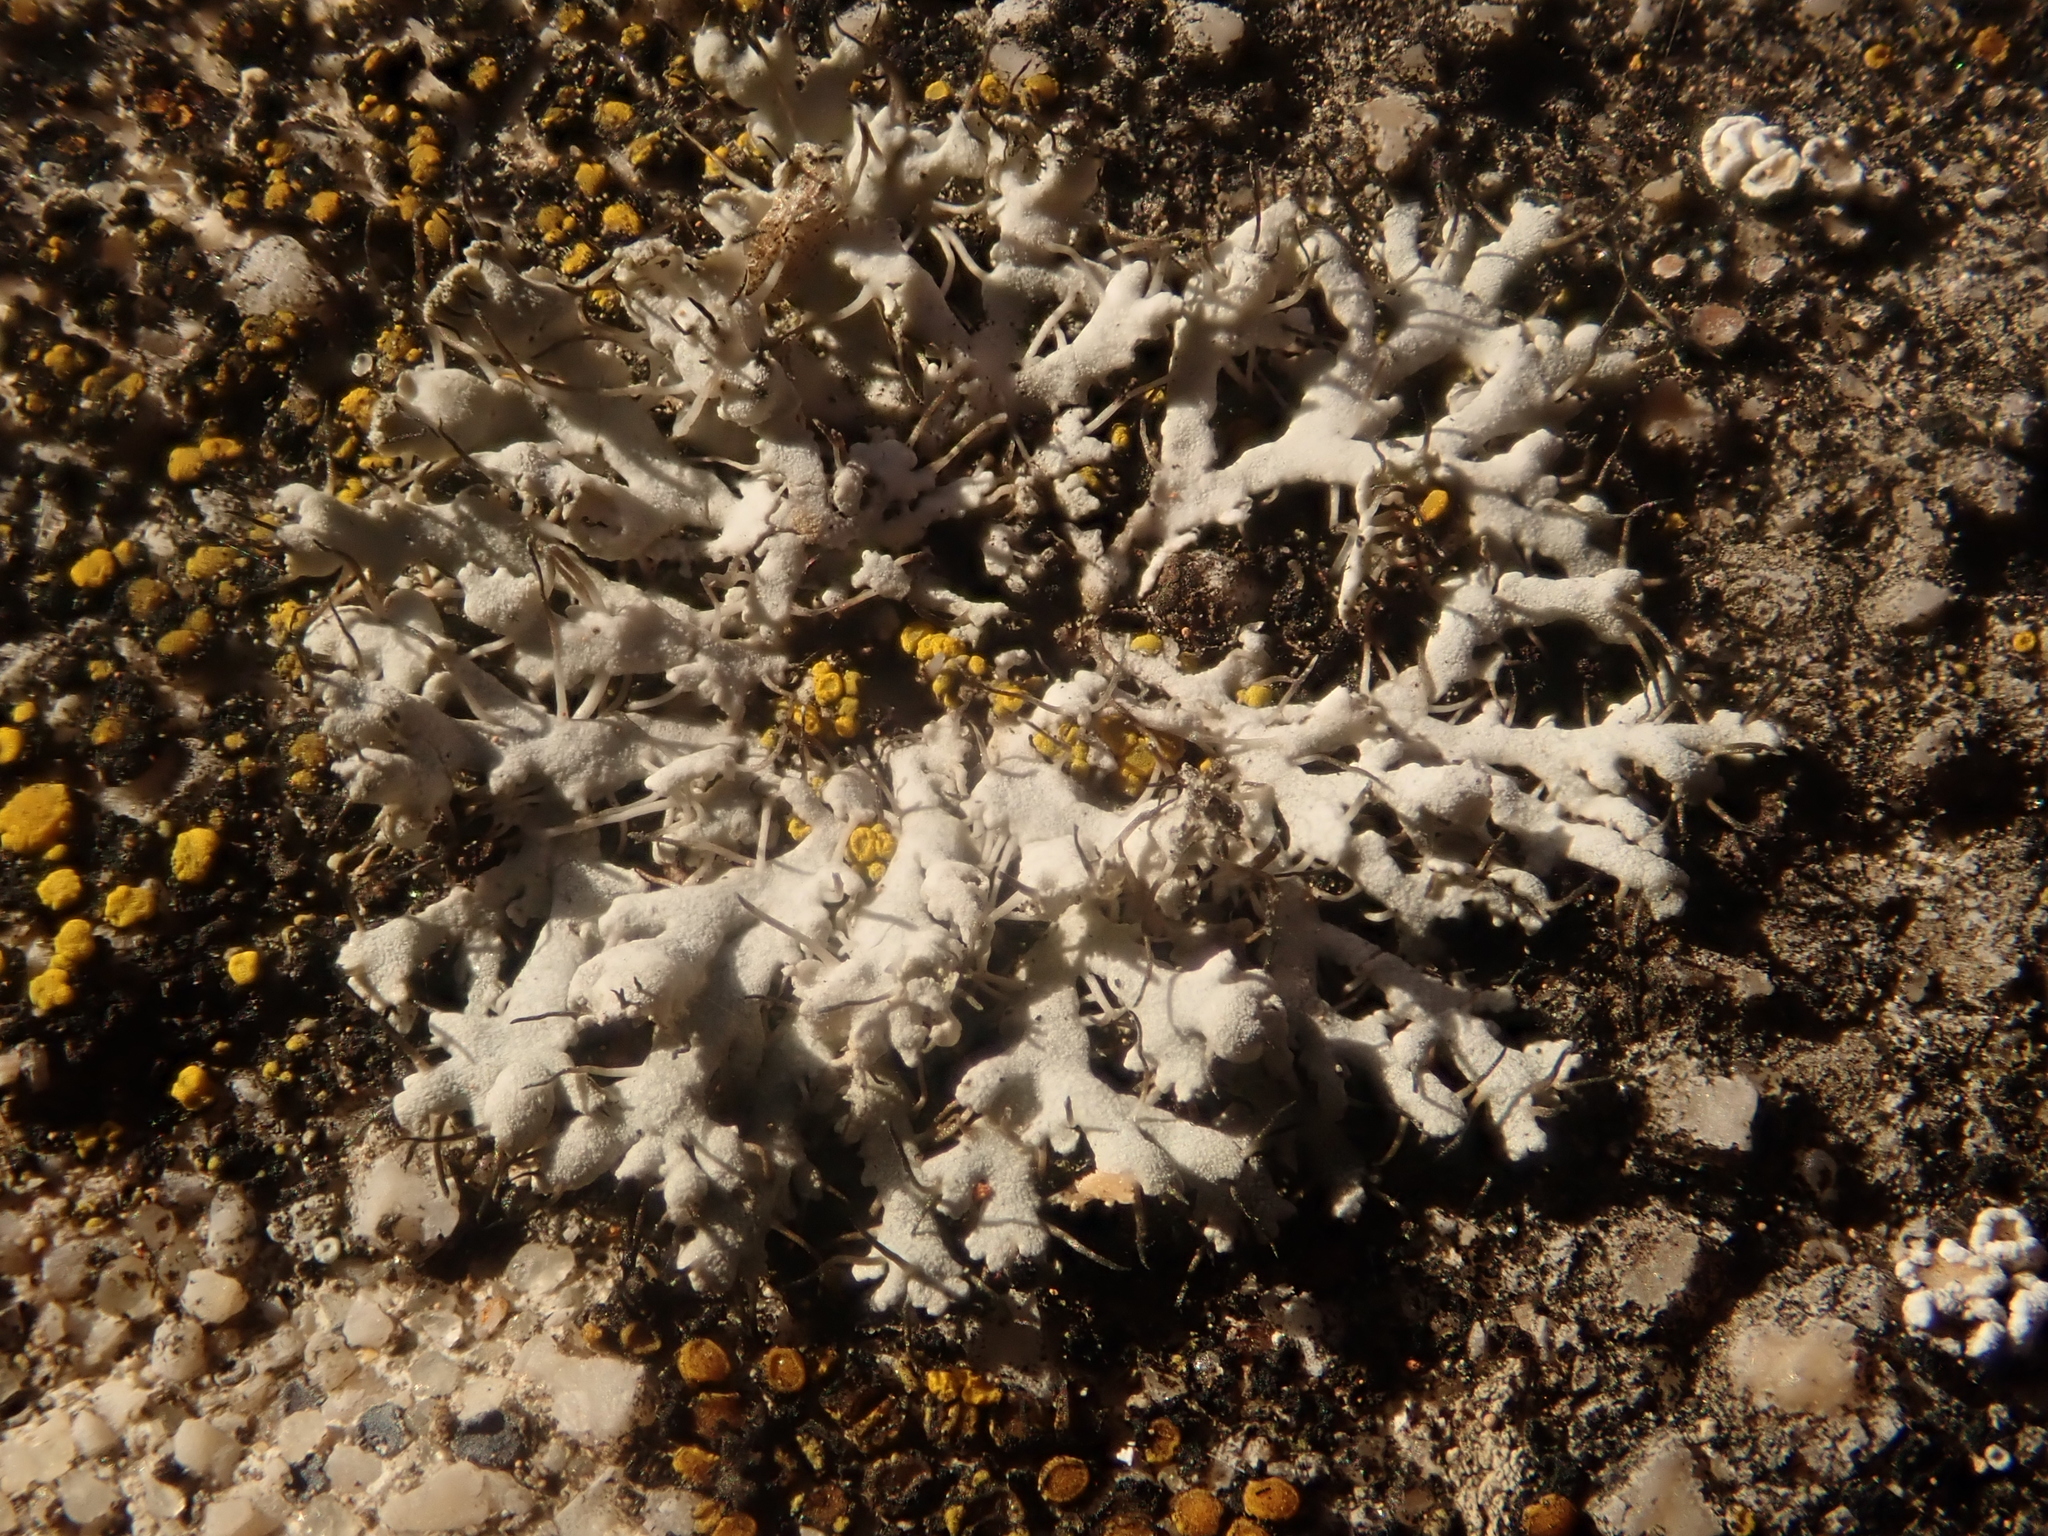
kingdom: Fungi
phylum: Ascomycota
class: Lecanoromycetes
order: Caliciales
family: Physciaceae
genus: Physcia
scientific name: Physcia adscendens
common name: Hooded rosette lichen
